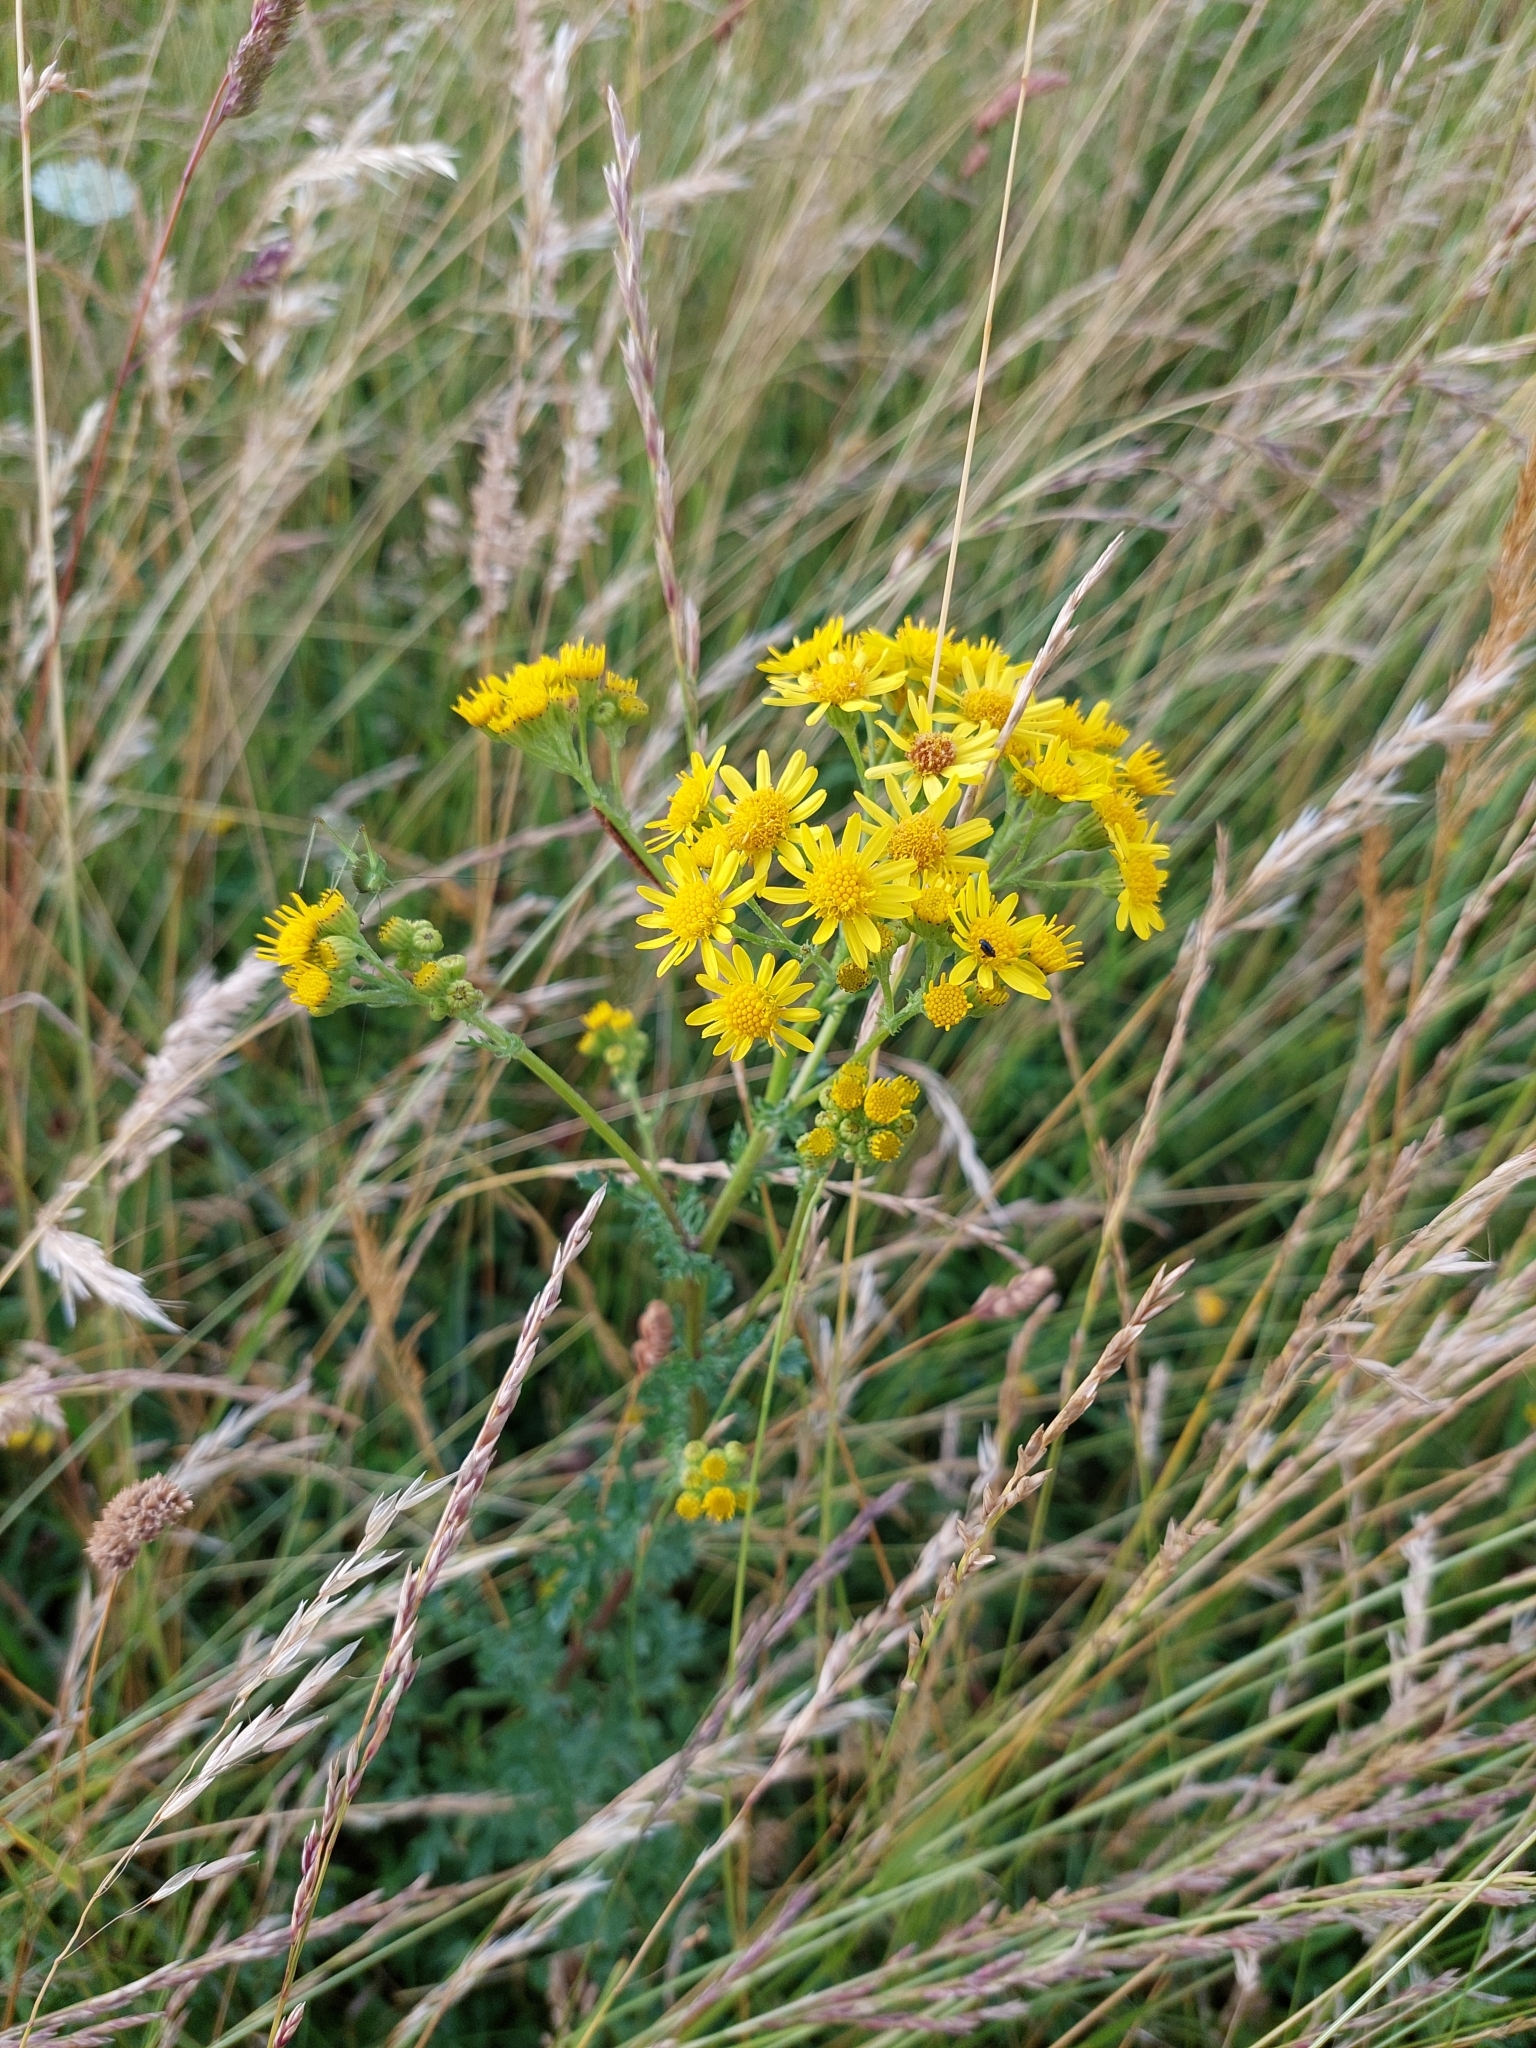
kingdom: Plantae
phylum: Tracheophyta
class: Magnoliopsida
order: Asterales
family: Asteraceae
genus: Jacobaea
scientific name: Jacobaea vulgaris
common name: Stinking willie
